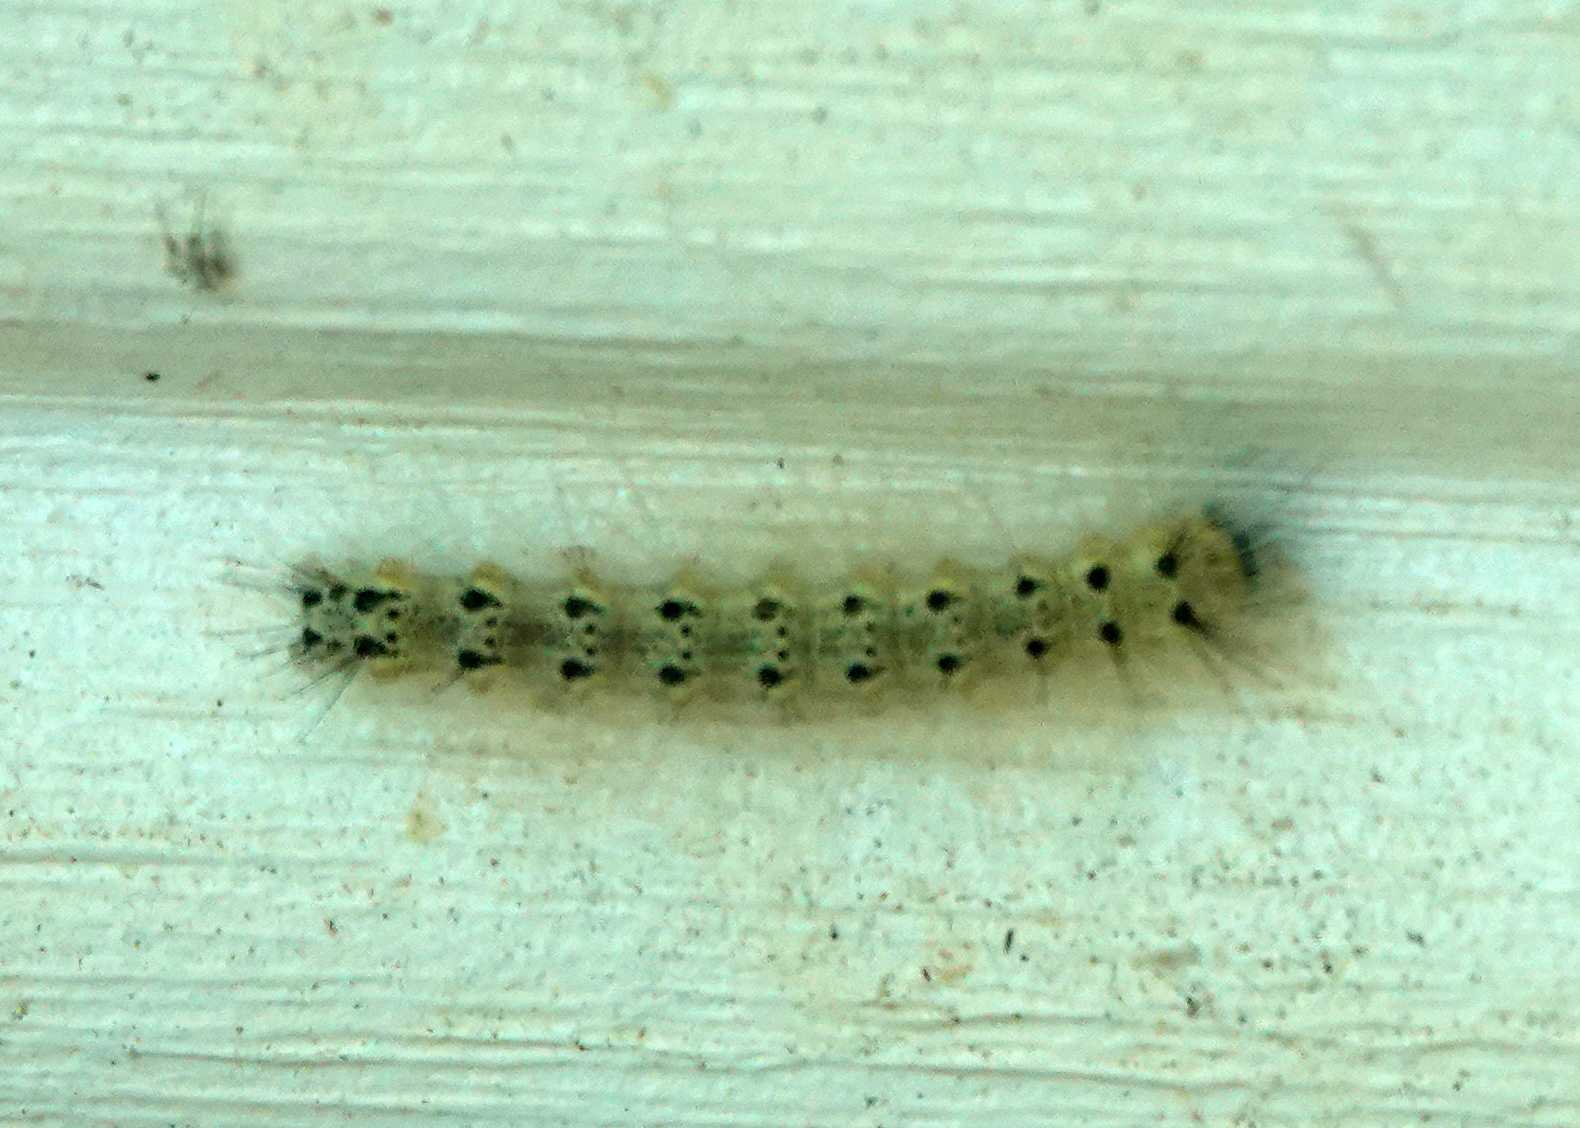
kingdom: Animalia
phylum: Arthropoda
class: Insecta
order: Lepidoptera
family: Erebidae
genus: Hyphantria
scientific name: Hyphantria cunea
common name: American white moth
